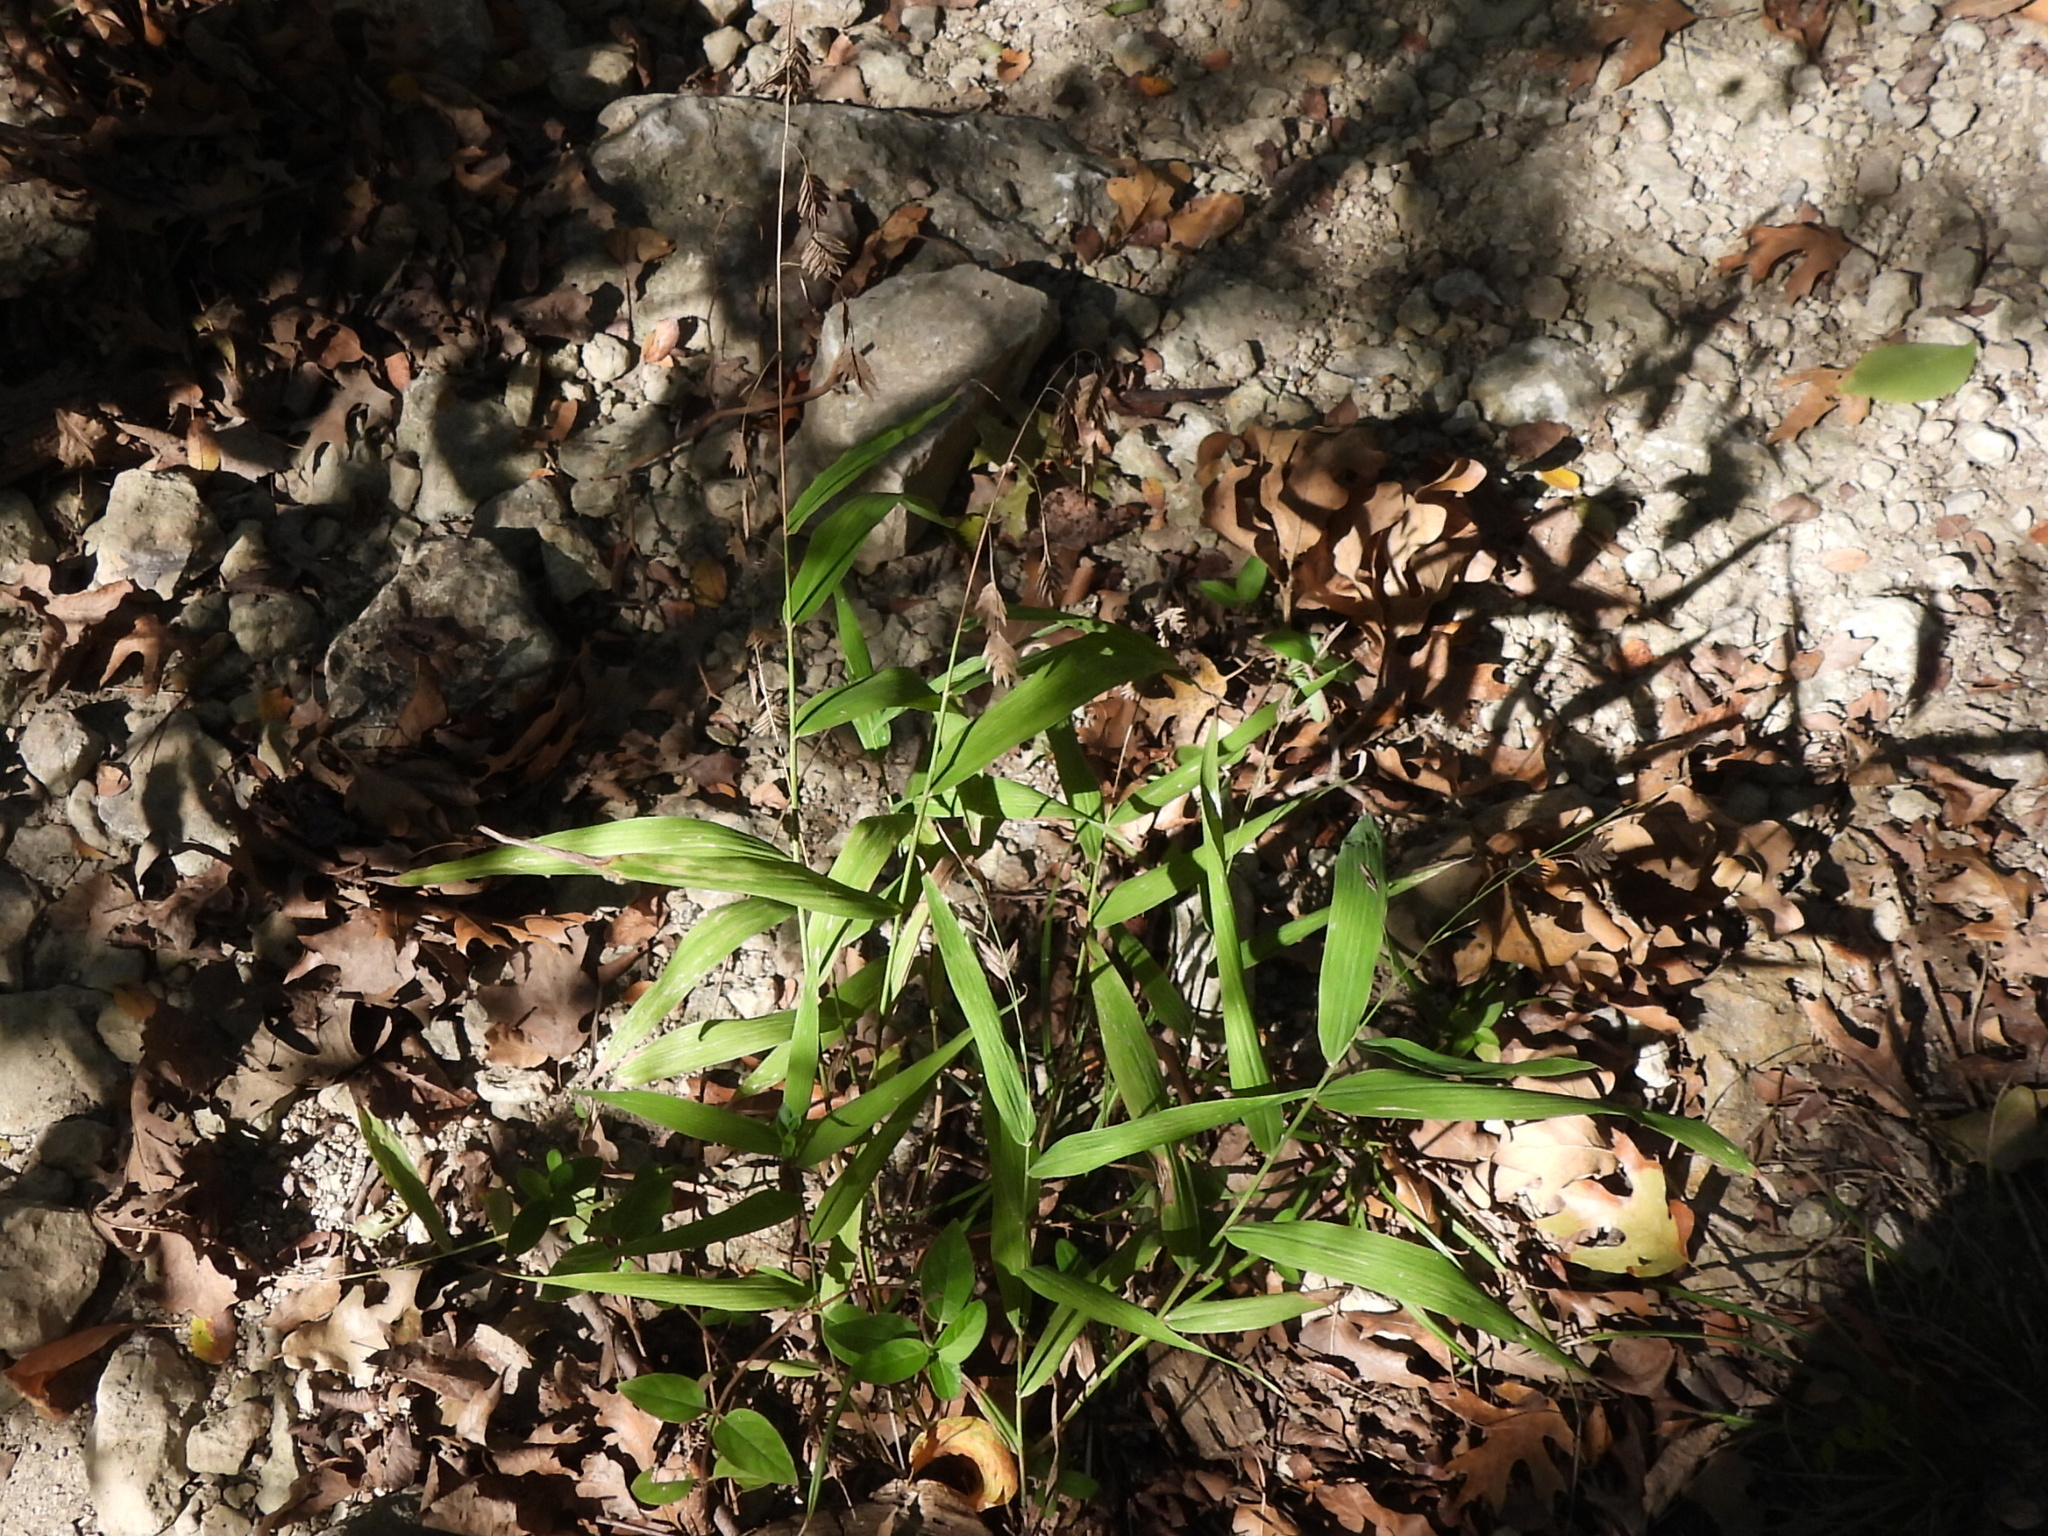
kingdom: Plantae
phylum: Tracheophyta
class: Liliopsida
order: Poales
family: Poaceae
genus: Chasmanthium
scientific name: Chasmanthium latifolium
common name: Broad-leaved chasmanthium
